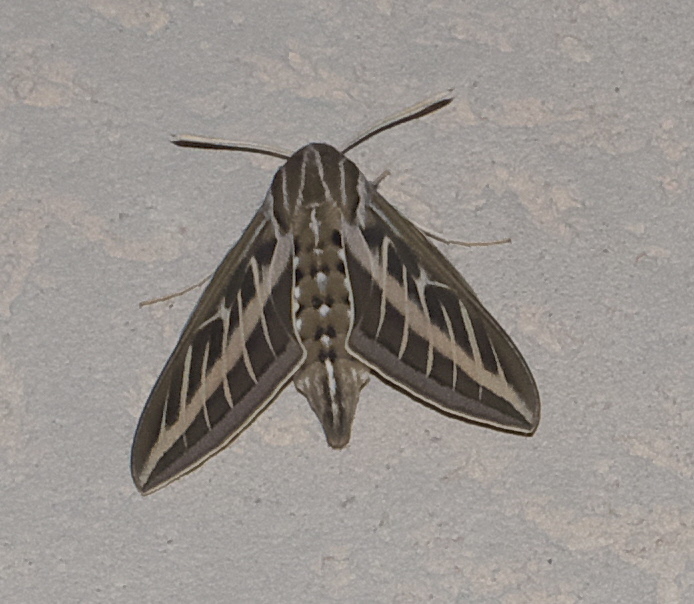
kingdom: Animalia
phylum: Arthropoda
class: Insecta
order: Lepidoptera
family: Sphingidae
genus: Hyles
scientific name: Hyles lineata
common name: White-lined sphinx
